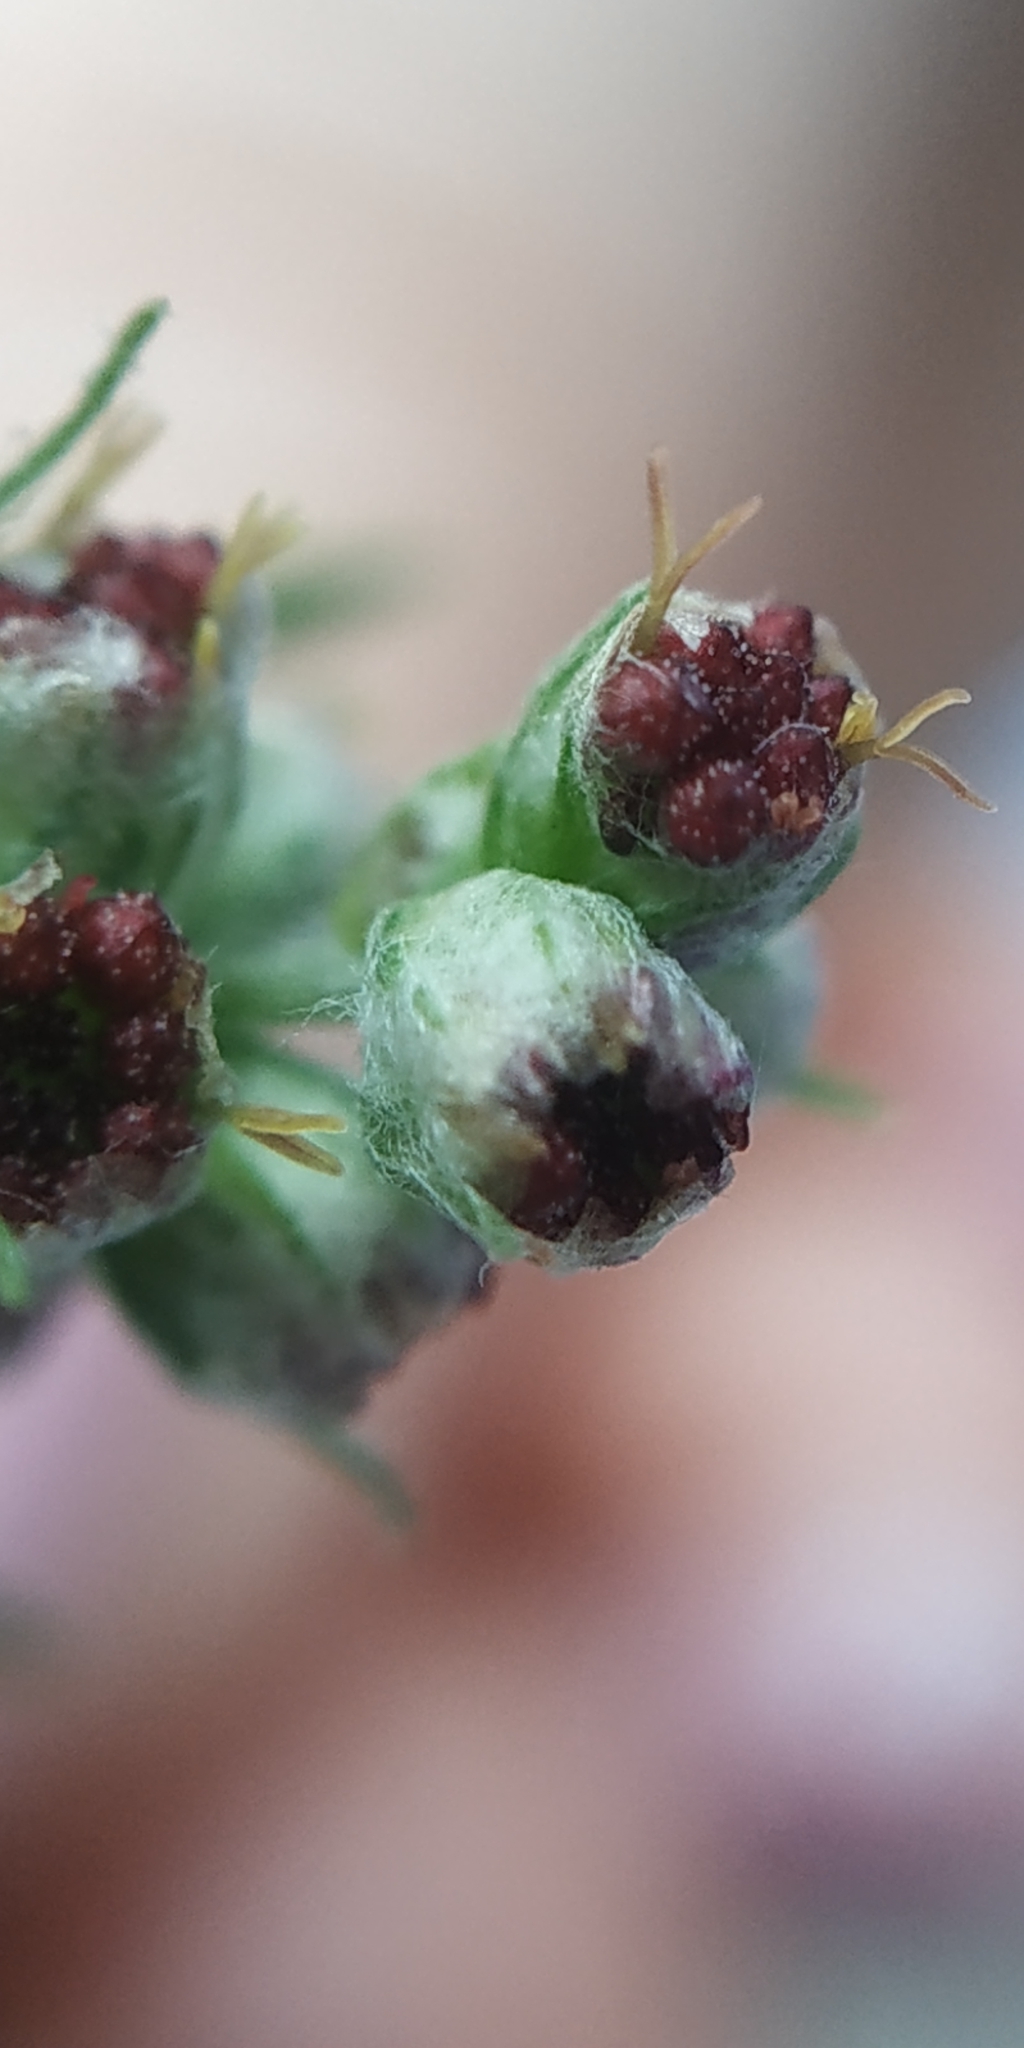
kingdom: Plantae
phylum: Tracheophyta
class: Magnoliopsida
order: Asterales
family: Asteraceae
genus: Artemisia
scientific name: Artemisia vulgaris
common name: Mugwort
